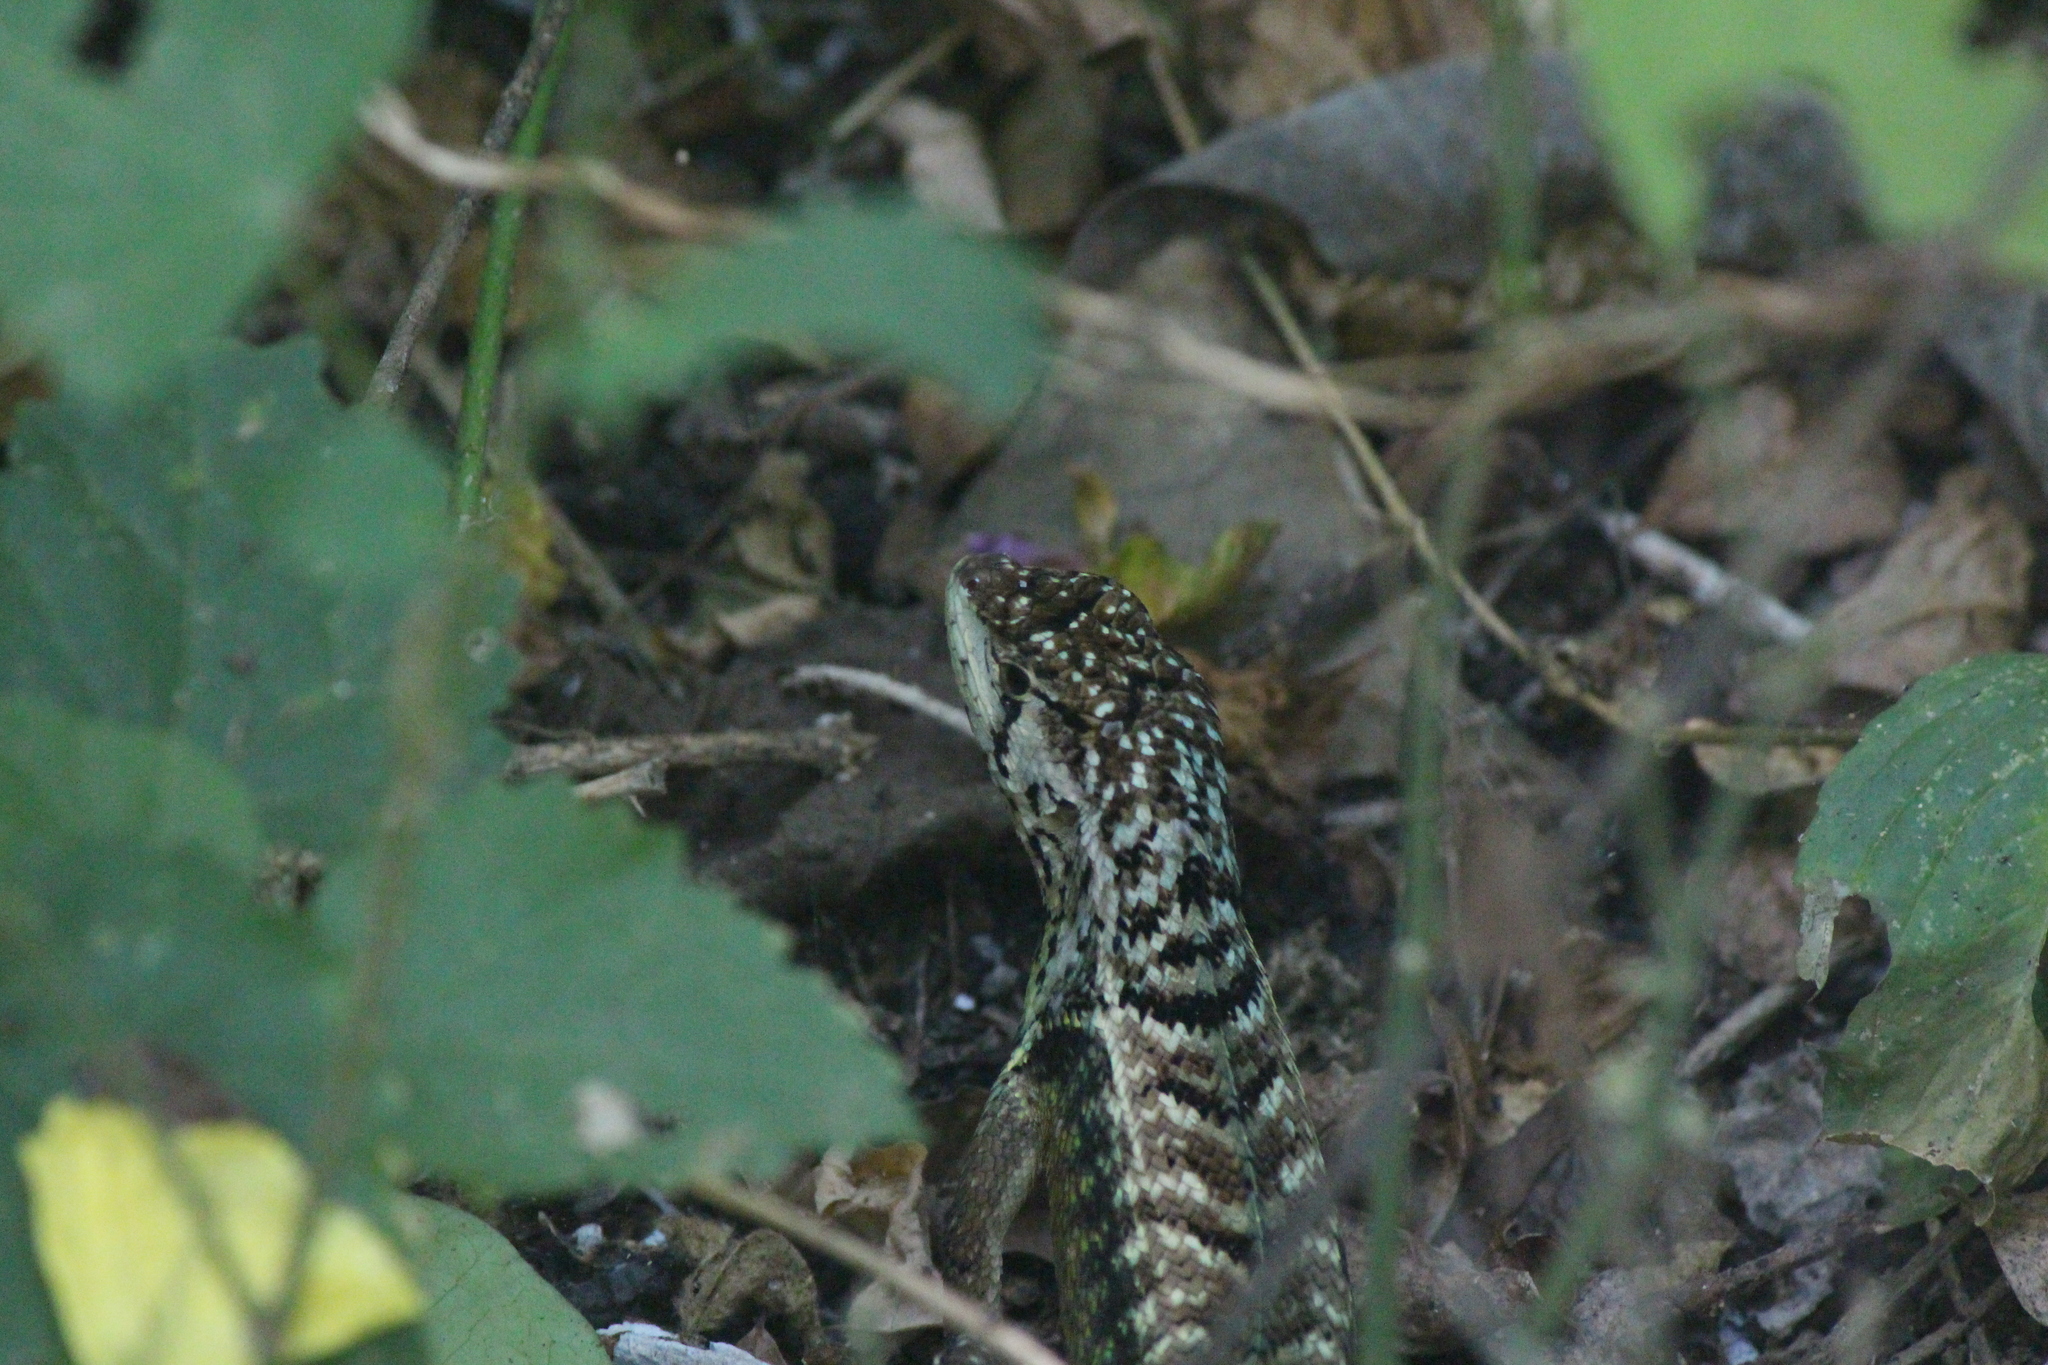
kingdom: Animalia
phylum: Chordata
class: Squamata
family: Tropiduridae
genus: Stenocercus
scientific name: Stenocercus iridescens
